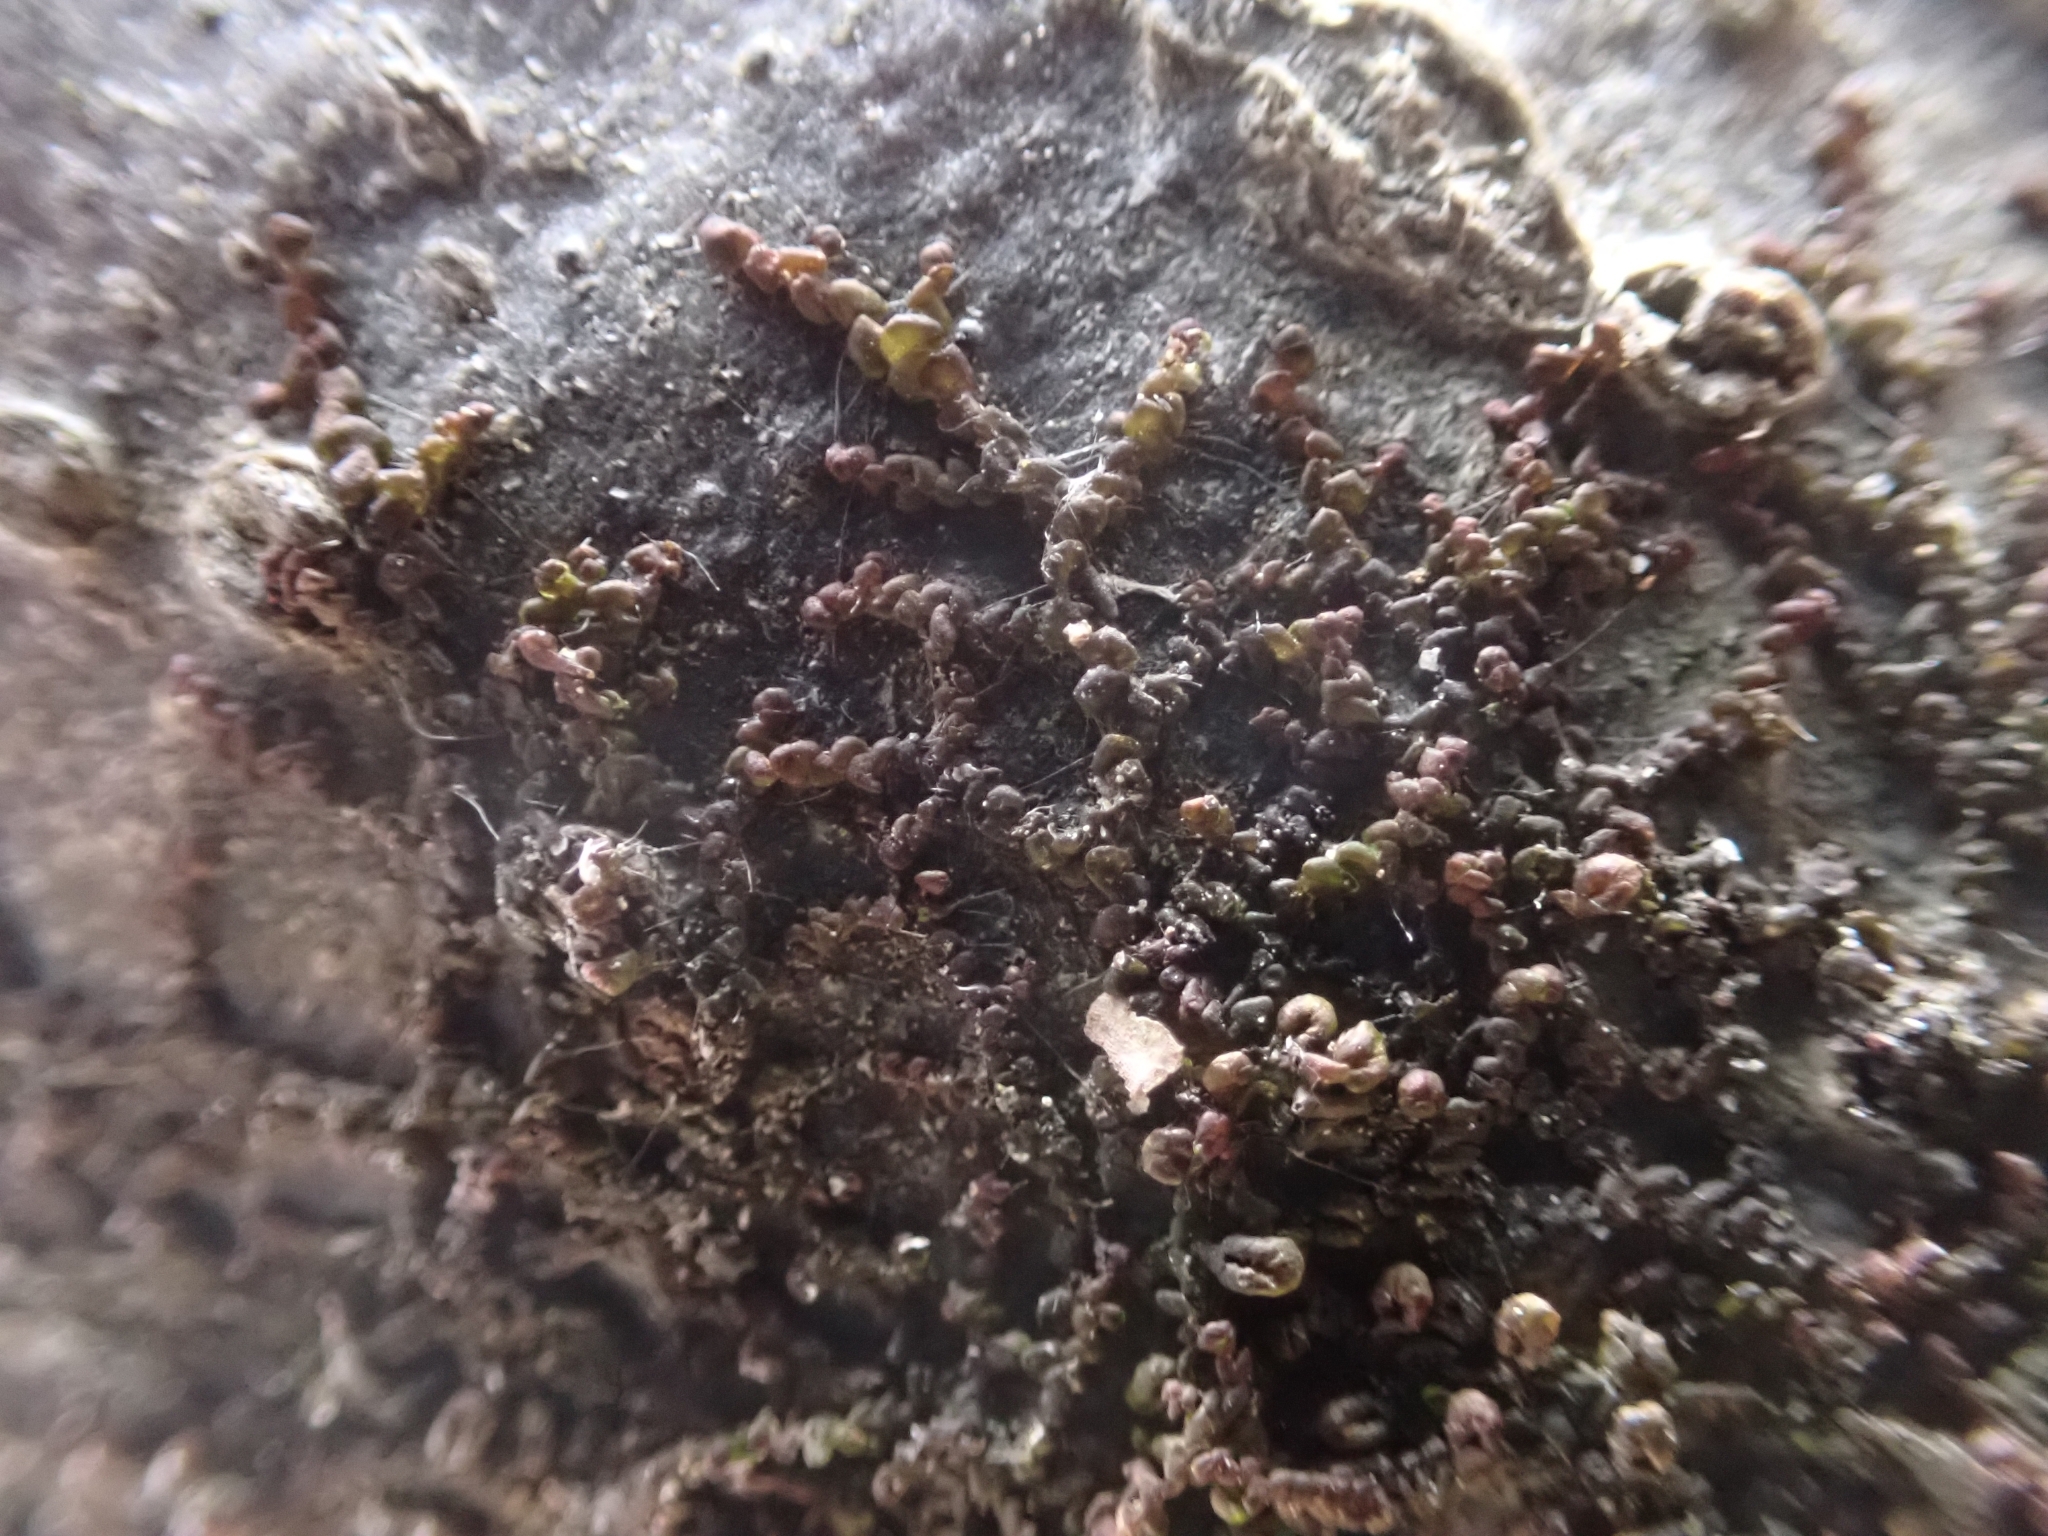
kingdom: Plantae
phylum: Marchantiophyta
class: Jungermanniopsida
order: Porellales
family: Frullaniaceae
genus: Frullania
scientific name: Frullania dilatata
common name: Dilated scalewort
